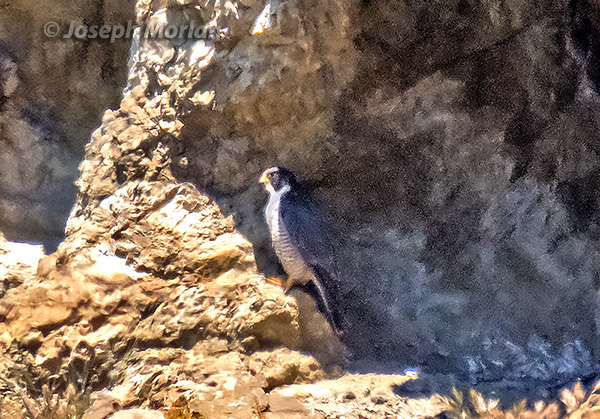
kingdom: Animalia
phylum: Chordata
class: Aves
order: Falconiformes
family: Falconidae
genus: Falco
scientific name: Falco peregrinus
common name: Peregrine falcon
